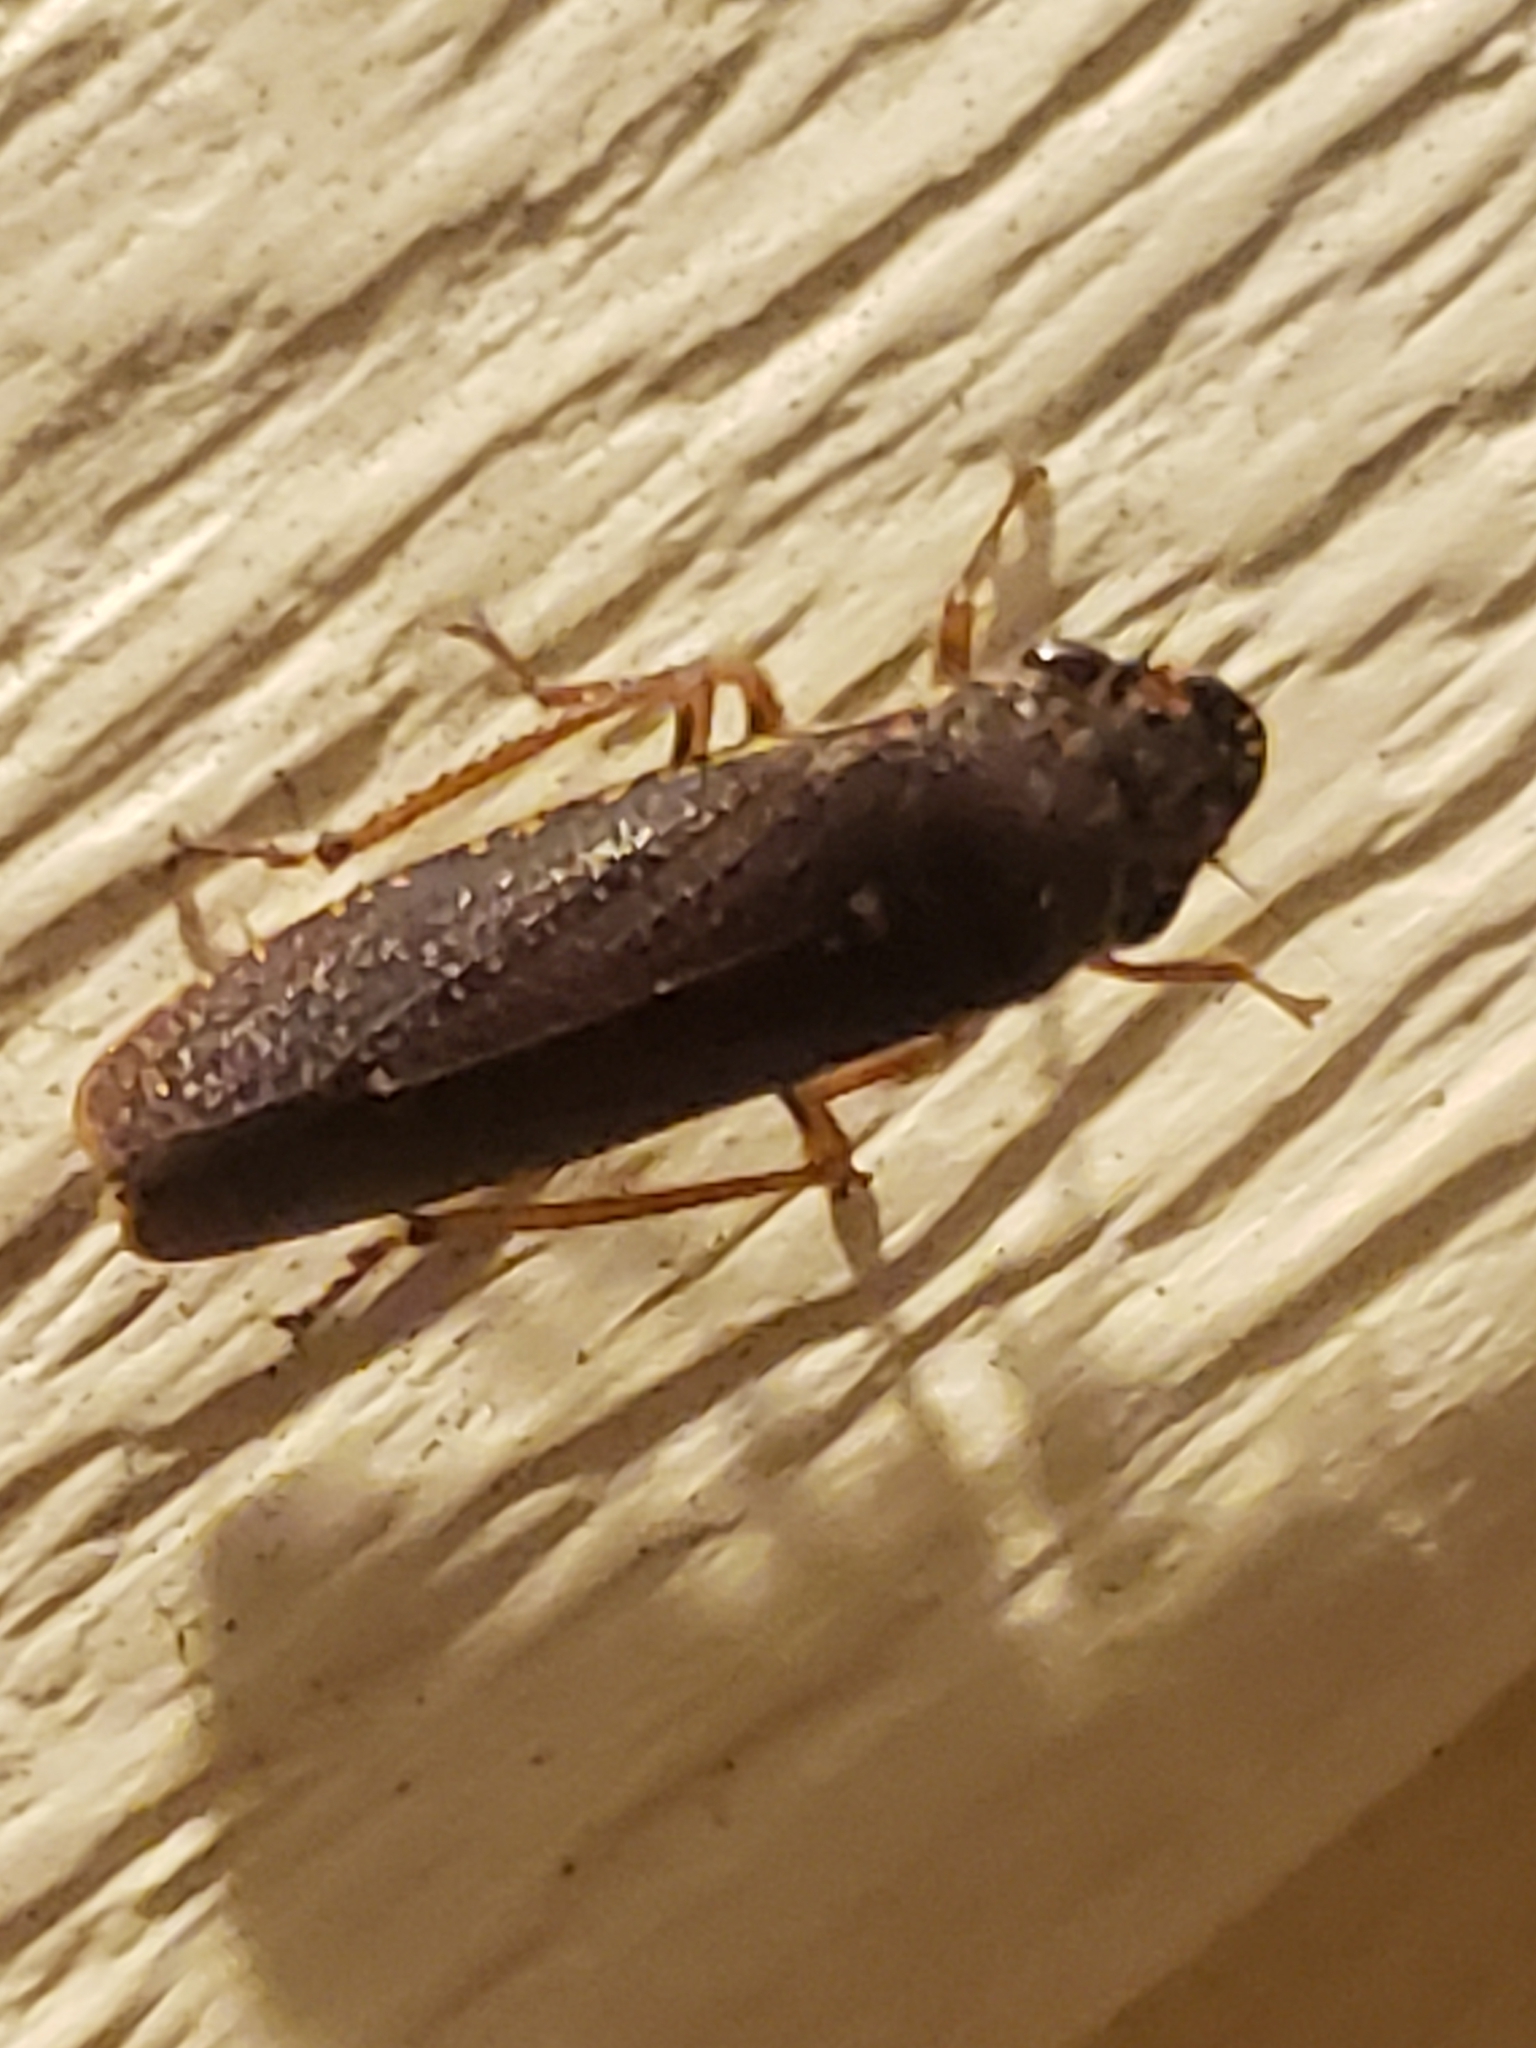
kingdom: Animalia
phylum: Arthropoda
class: Insecta
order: Hemiptera
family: Cicadellidae
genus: Paraulacizes
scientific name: Paraulacizes irrorata
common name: Speckled sharpshooter
